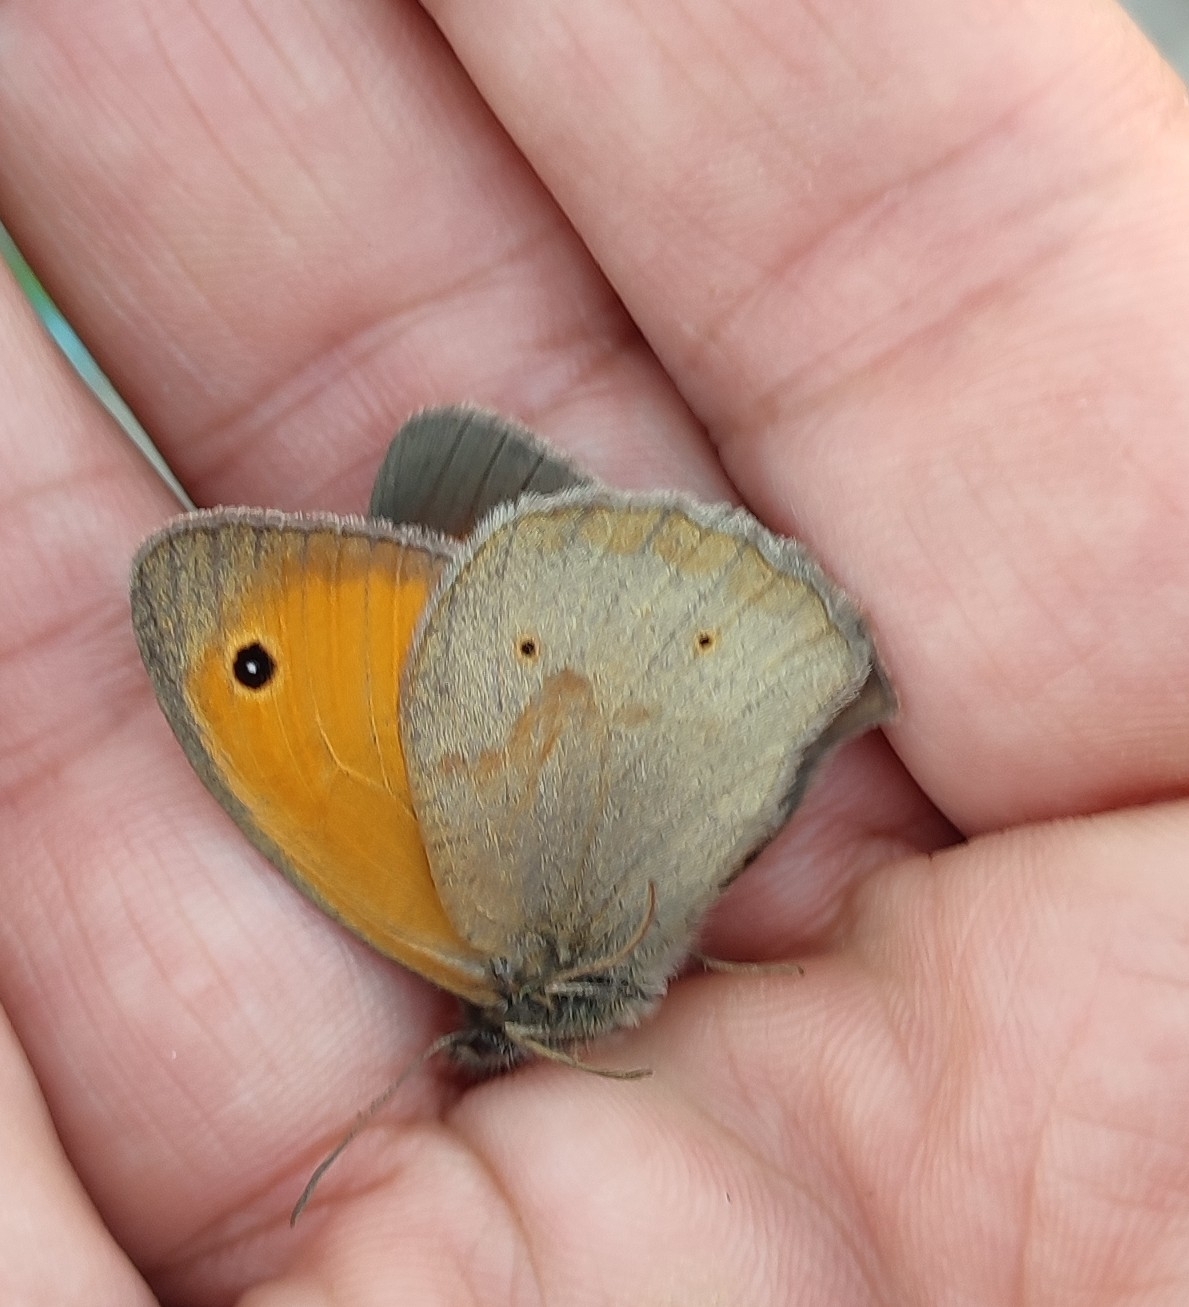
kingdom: Animalia
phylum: Arthropoda
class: Insecta
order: Lepidoptera
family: Nymphalidae
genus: Maniola
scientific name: Maniola jurtina
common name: Meadow brown
